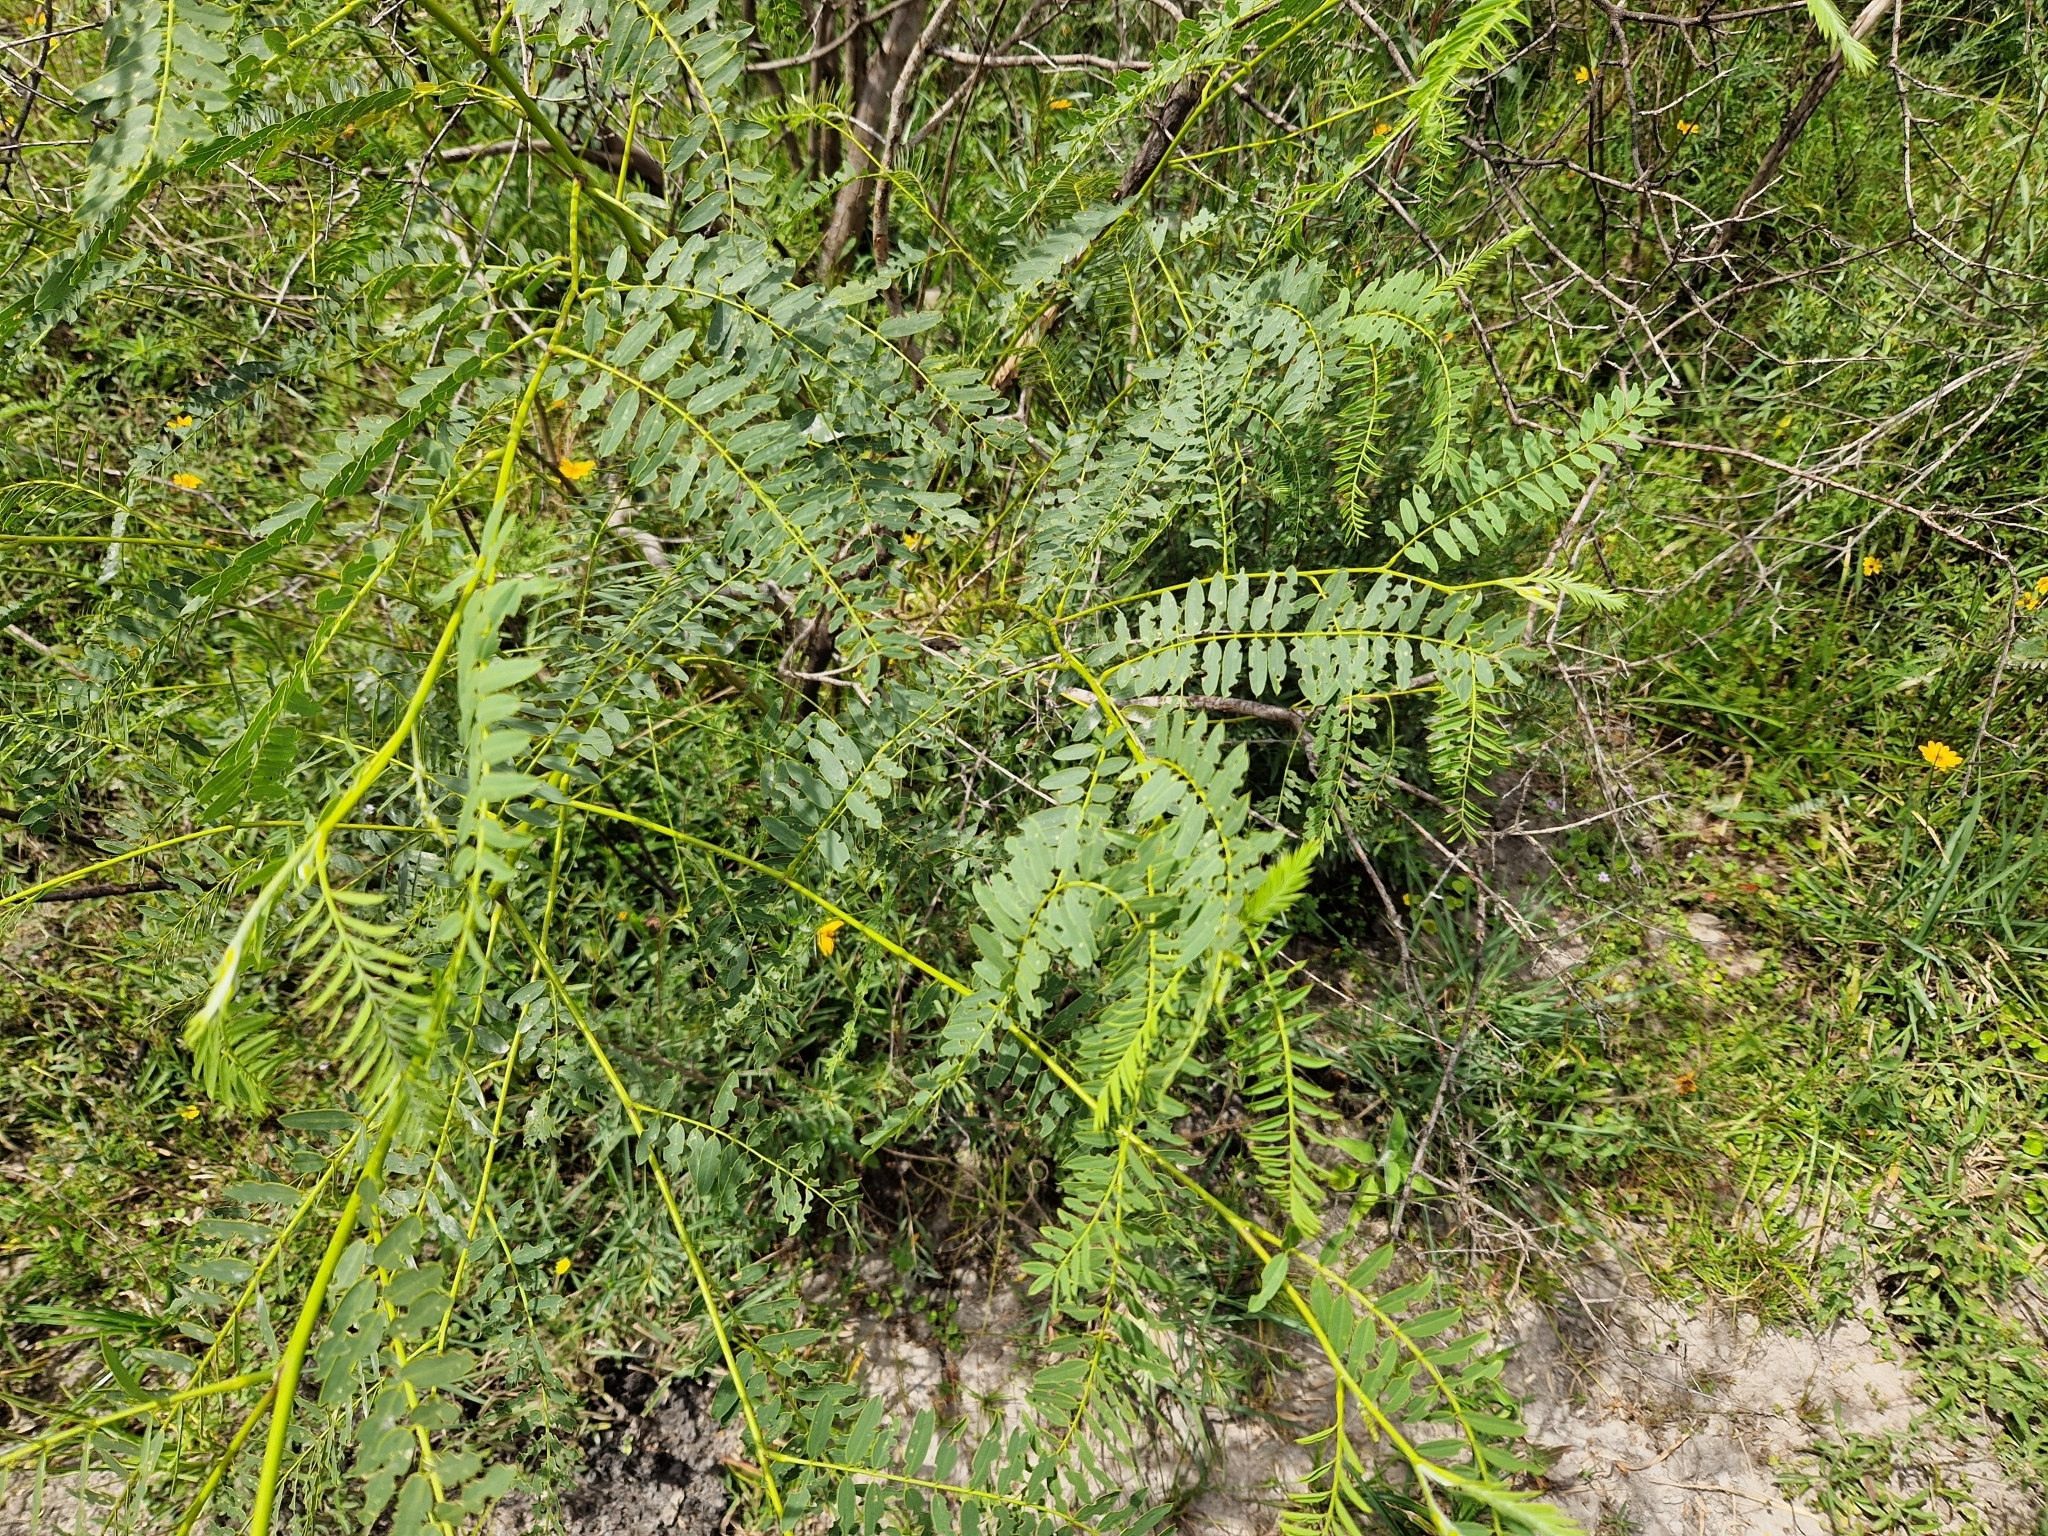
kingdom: Plantae
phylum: Tracheophyta
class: Magnoliopsida
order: Fabales
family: Fabaceae
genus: Sesbania
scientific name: Sesbania virgata
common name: Wand riverhemp
